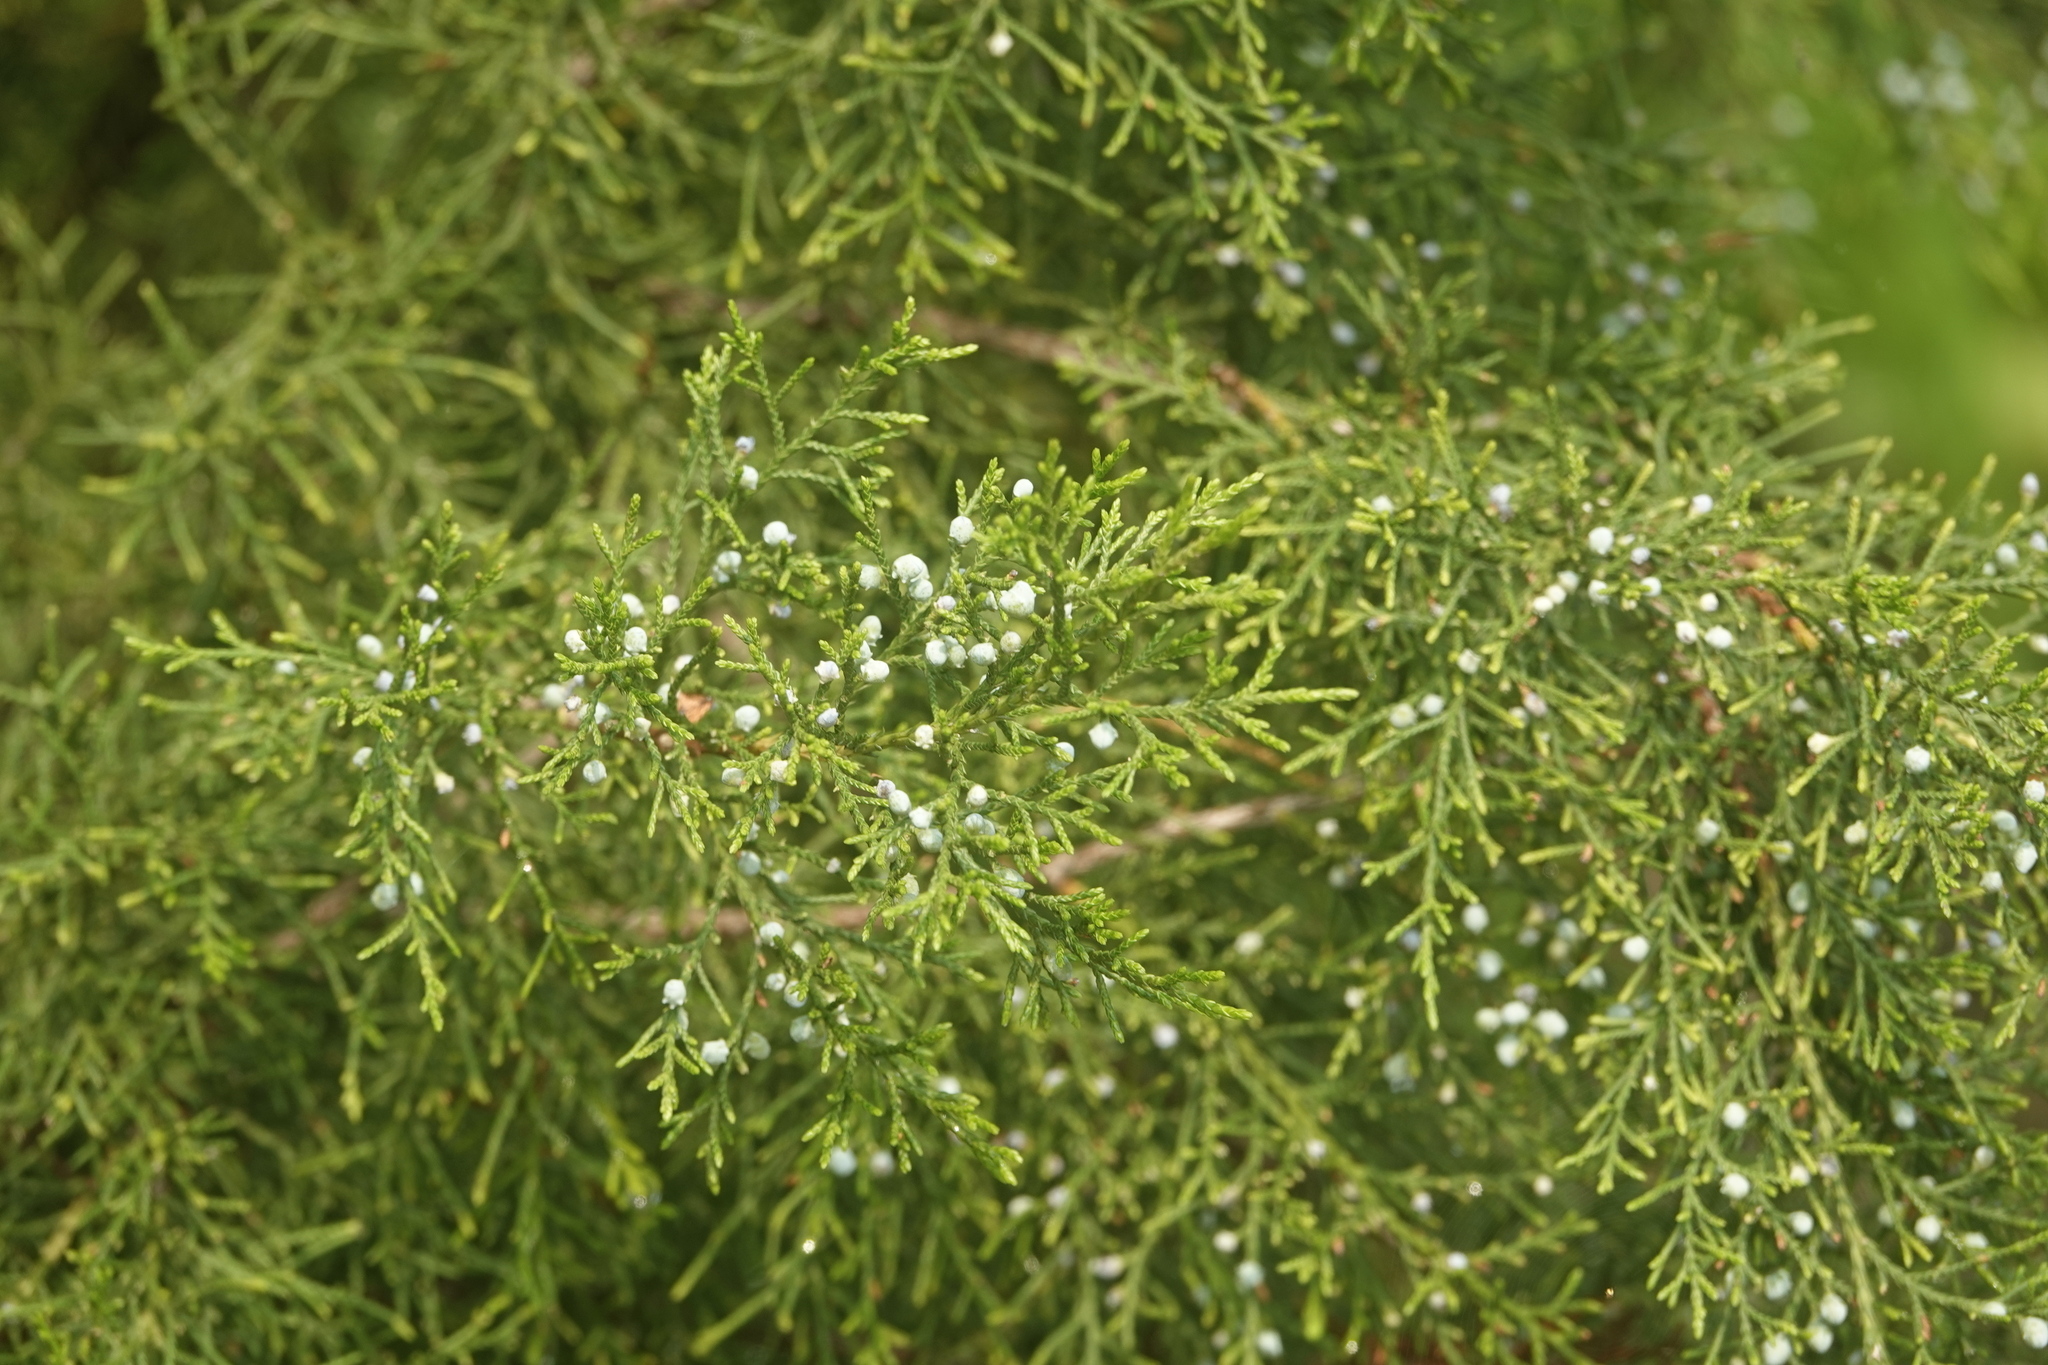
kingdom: Plantae
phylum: Tracheophyta
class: Pinopsida
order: Pinales
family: Cupressaceae
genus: Juniperus
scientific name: Juniperus virginiana
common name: Red juniper
